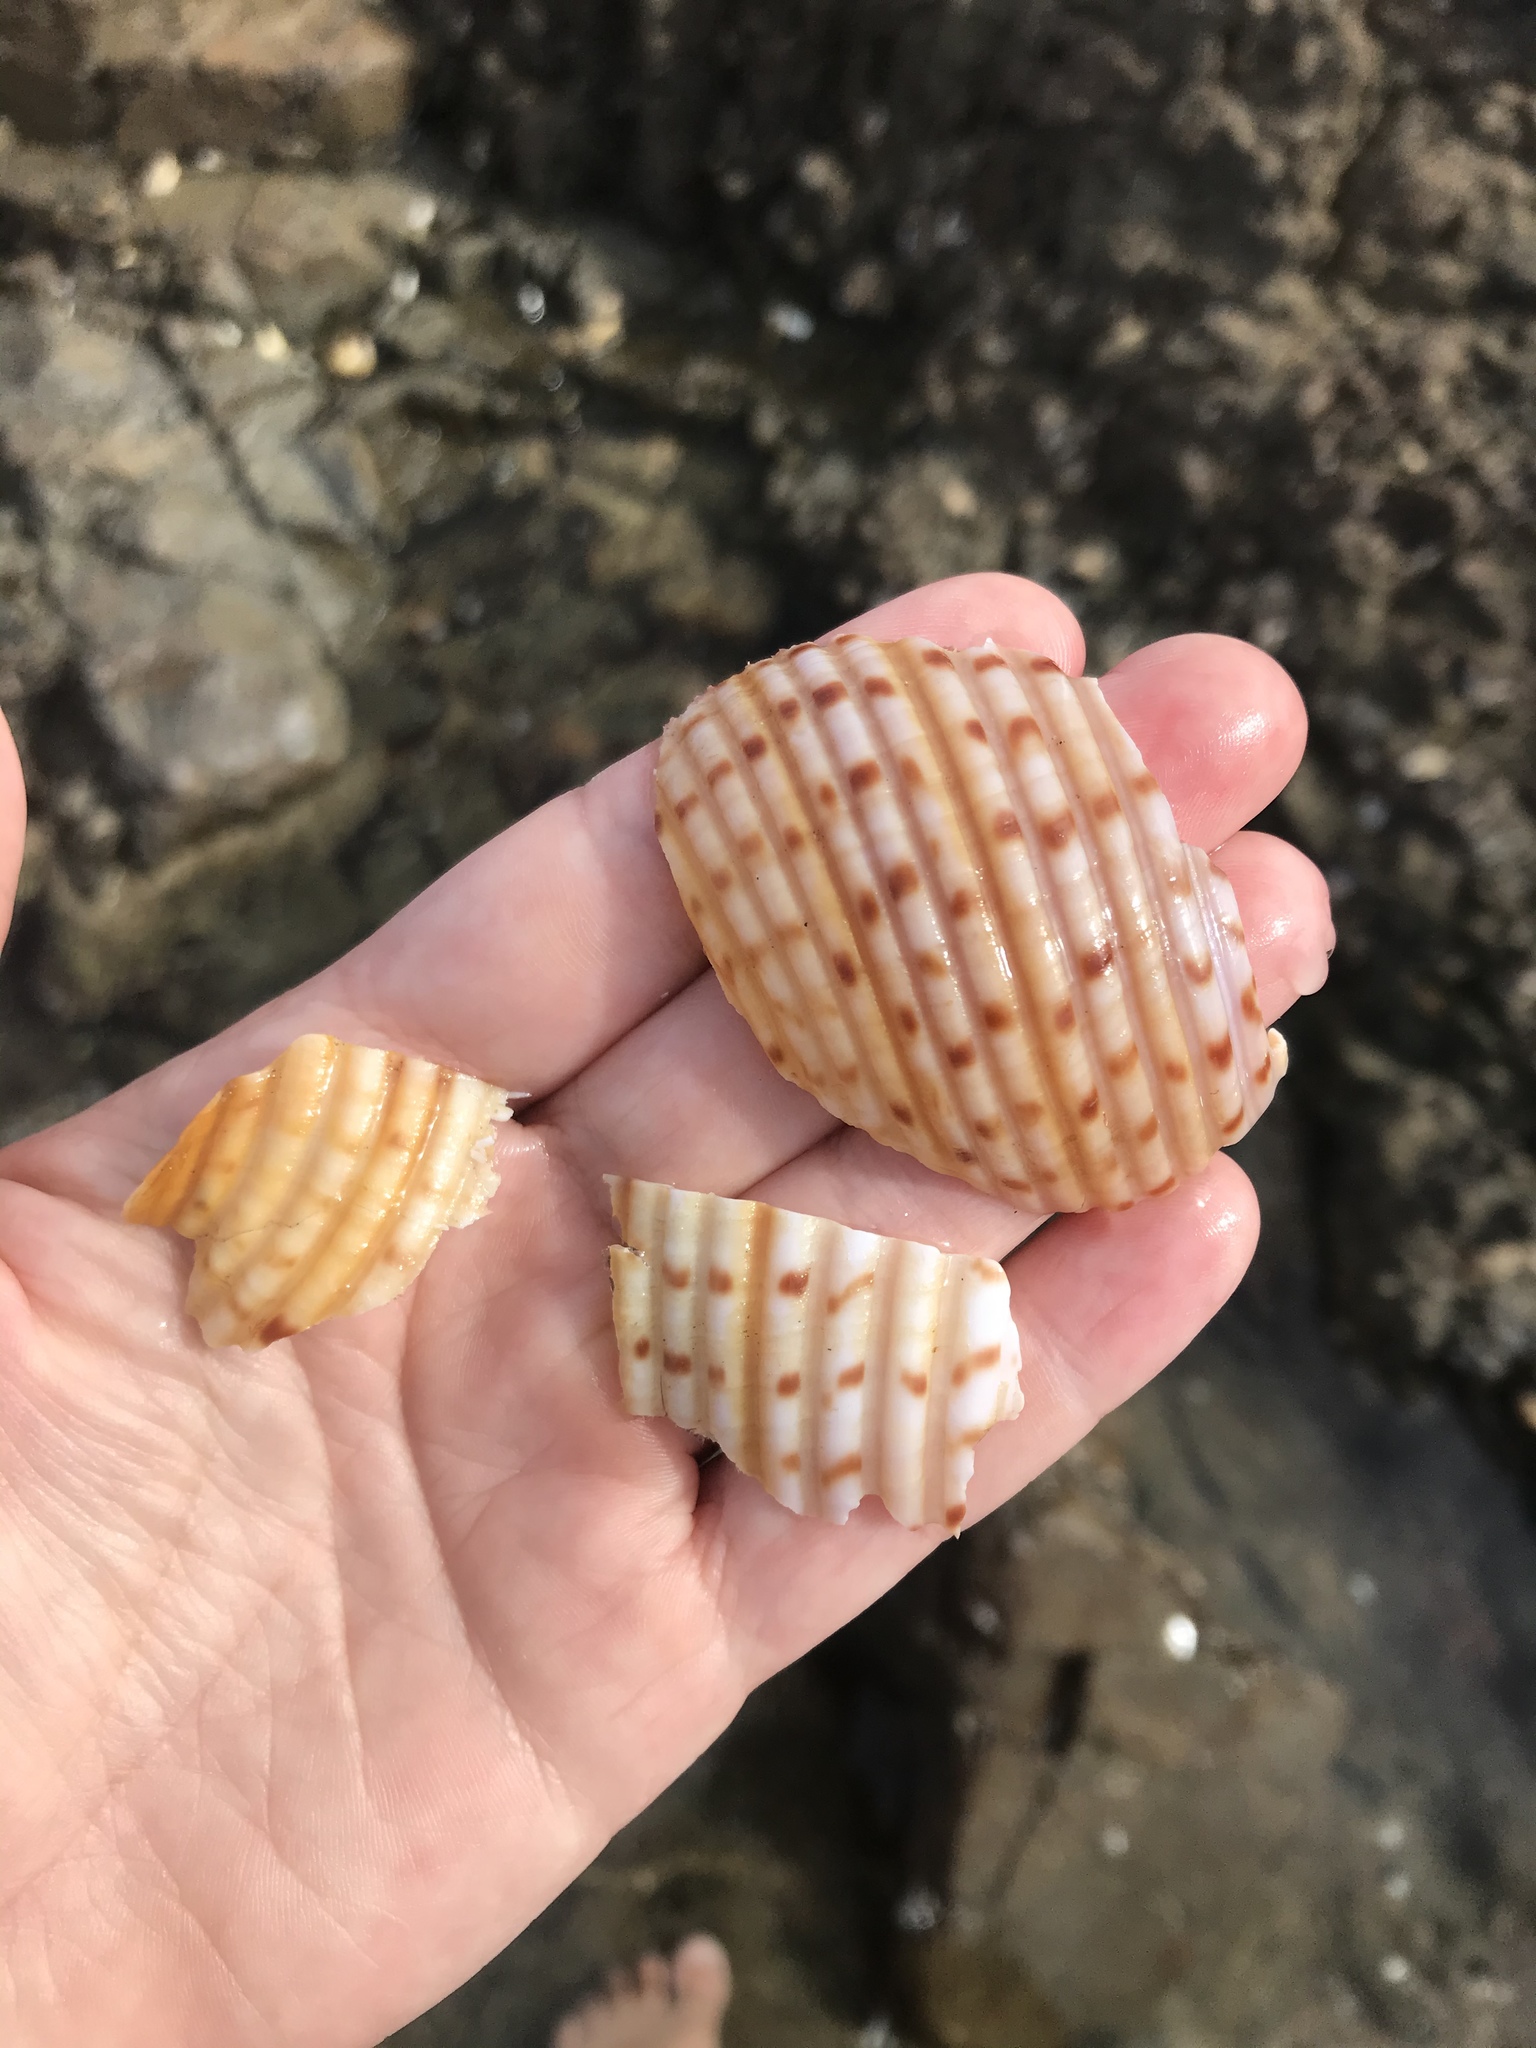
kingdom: Animalia
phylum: Mollusca
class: Gastropoda
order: Littorinimorpha
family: Tonnidae
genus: Tonna
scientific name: Tonna tankervillii
